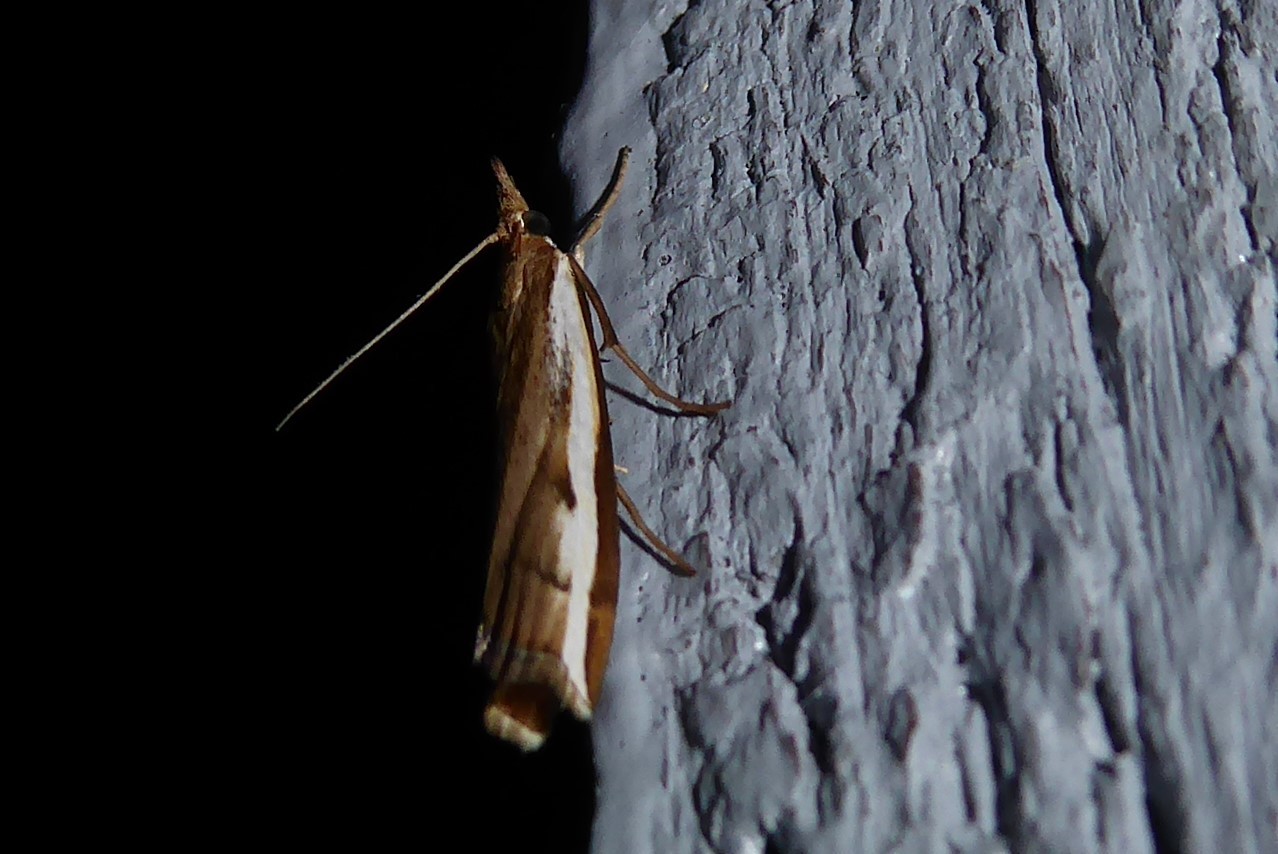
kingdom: Animalia
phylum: Arthropoda
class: Insecta
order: Lepidoptera
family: Crambidae
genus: Orocrambus
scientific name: Orocrambus flexuosellus
